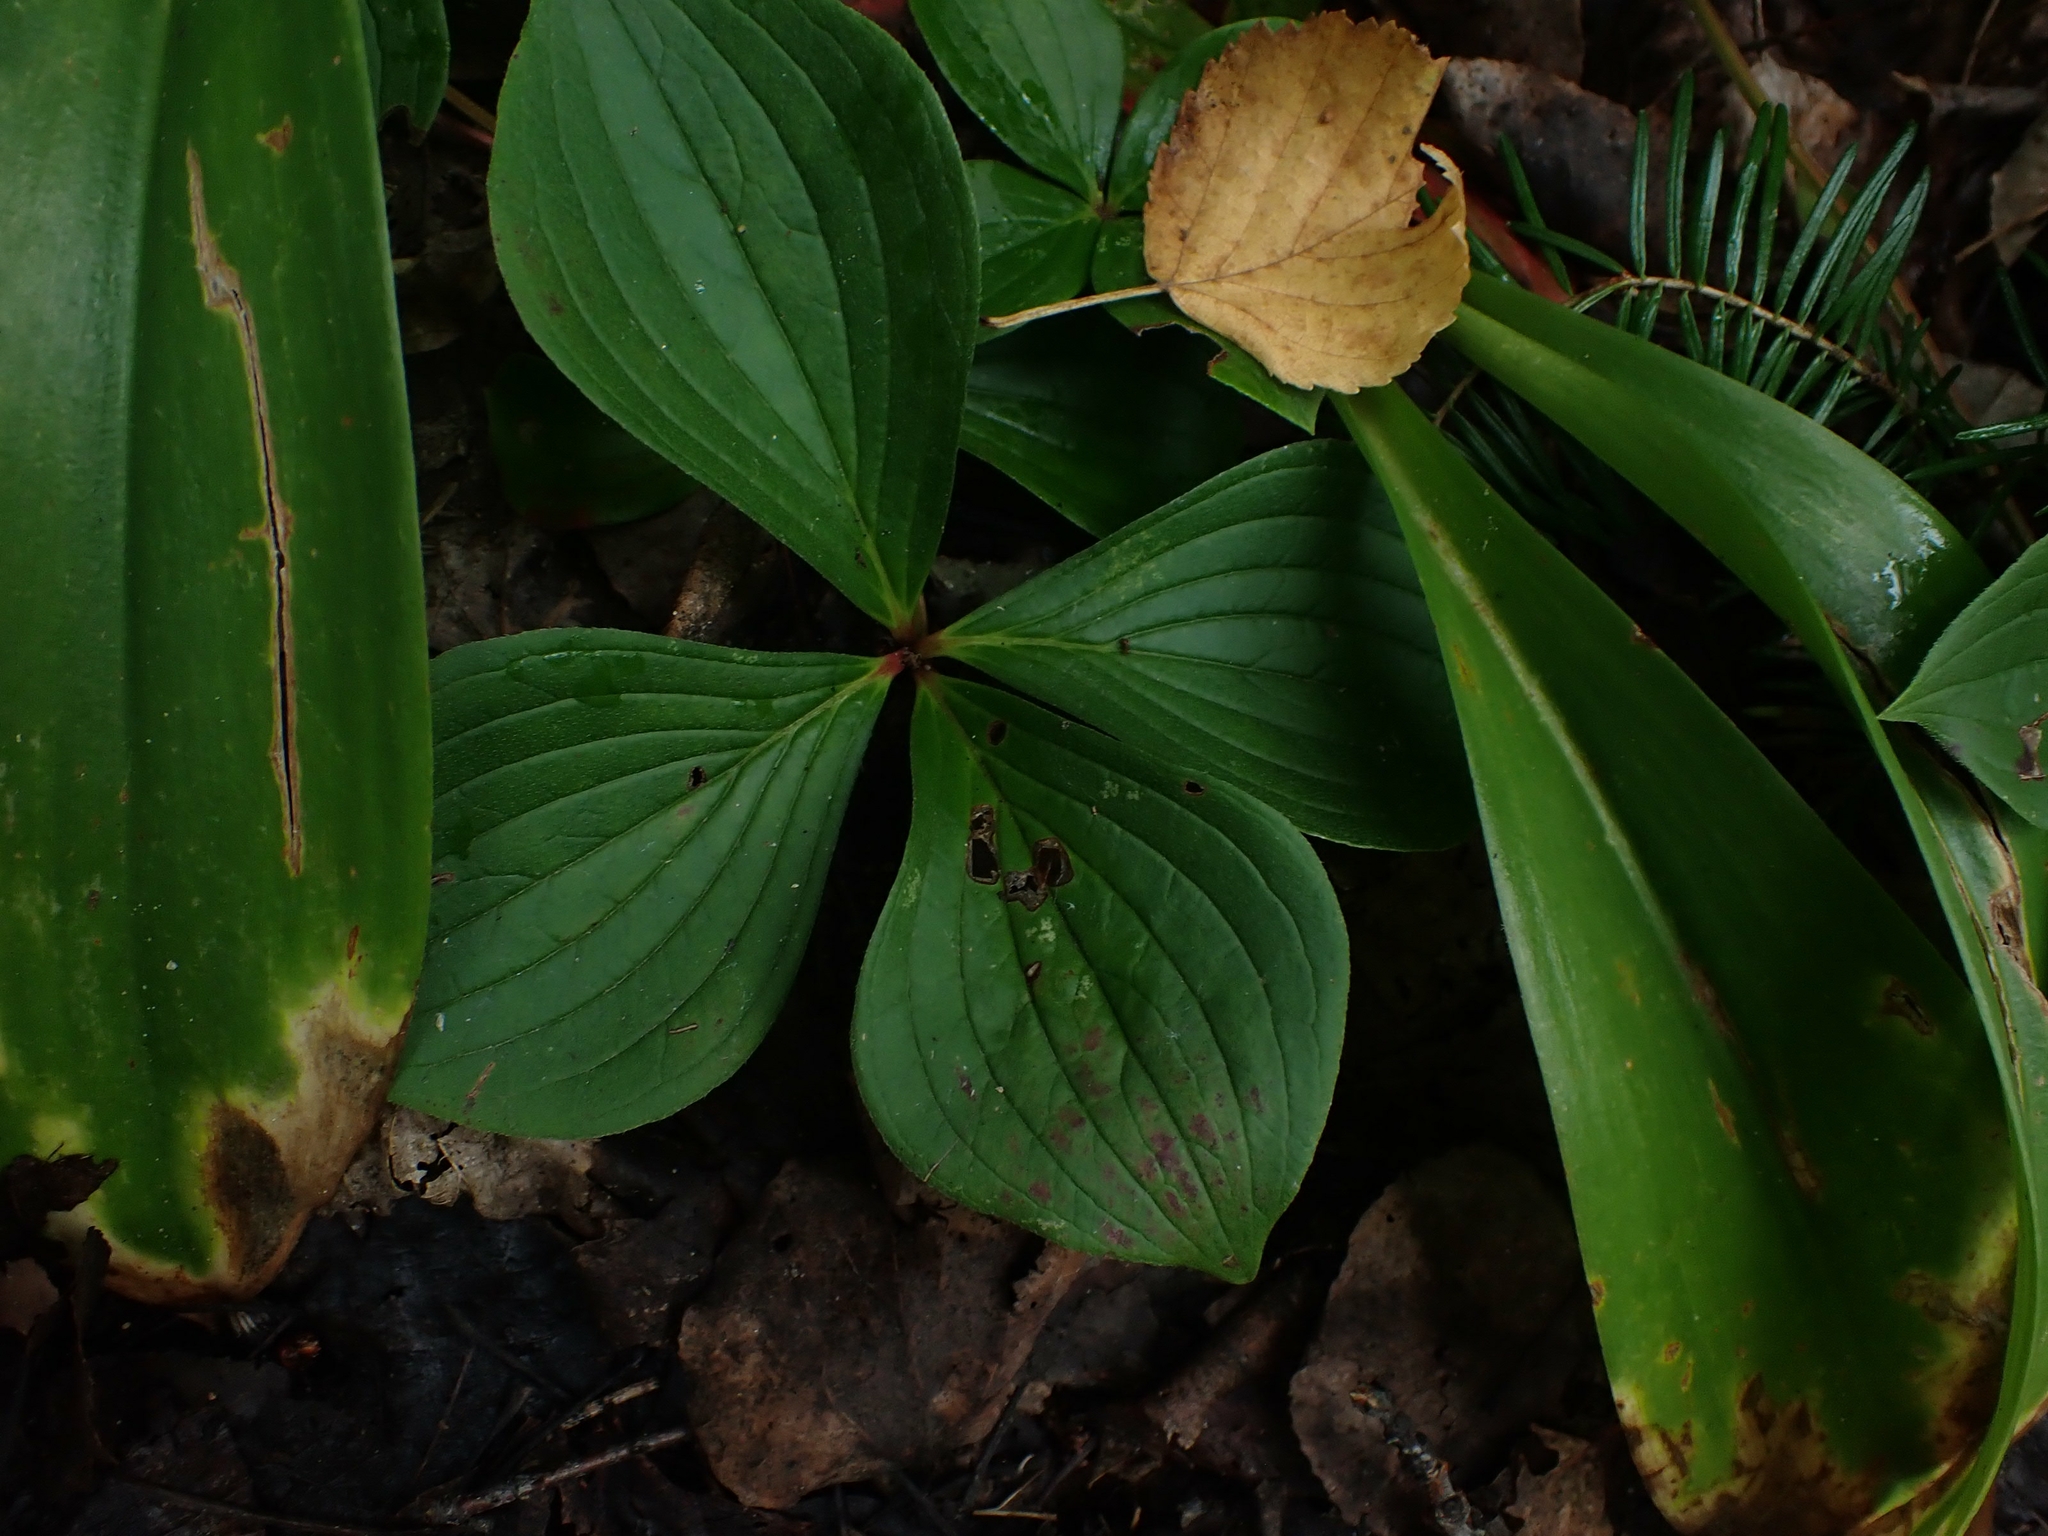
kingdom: Plantae
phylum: Tracheophyta
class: Magnoliopsida
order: Cornales
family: Cornaceae
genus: Cornus
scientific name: Cornus canadensis
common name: Creeping dogwood
